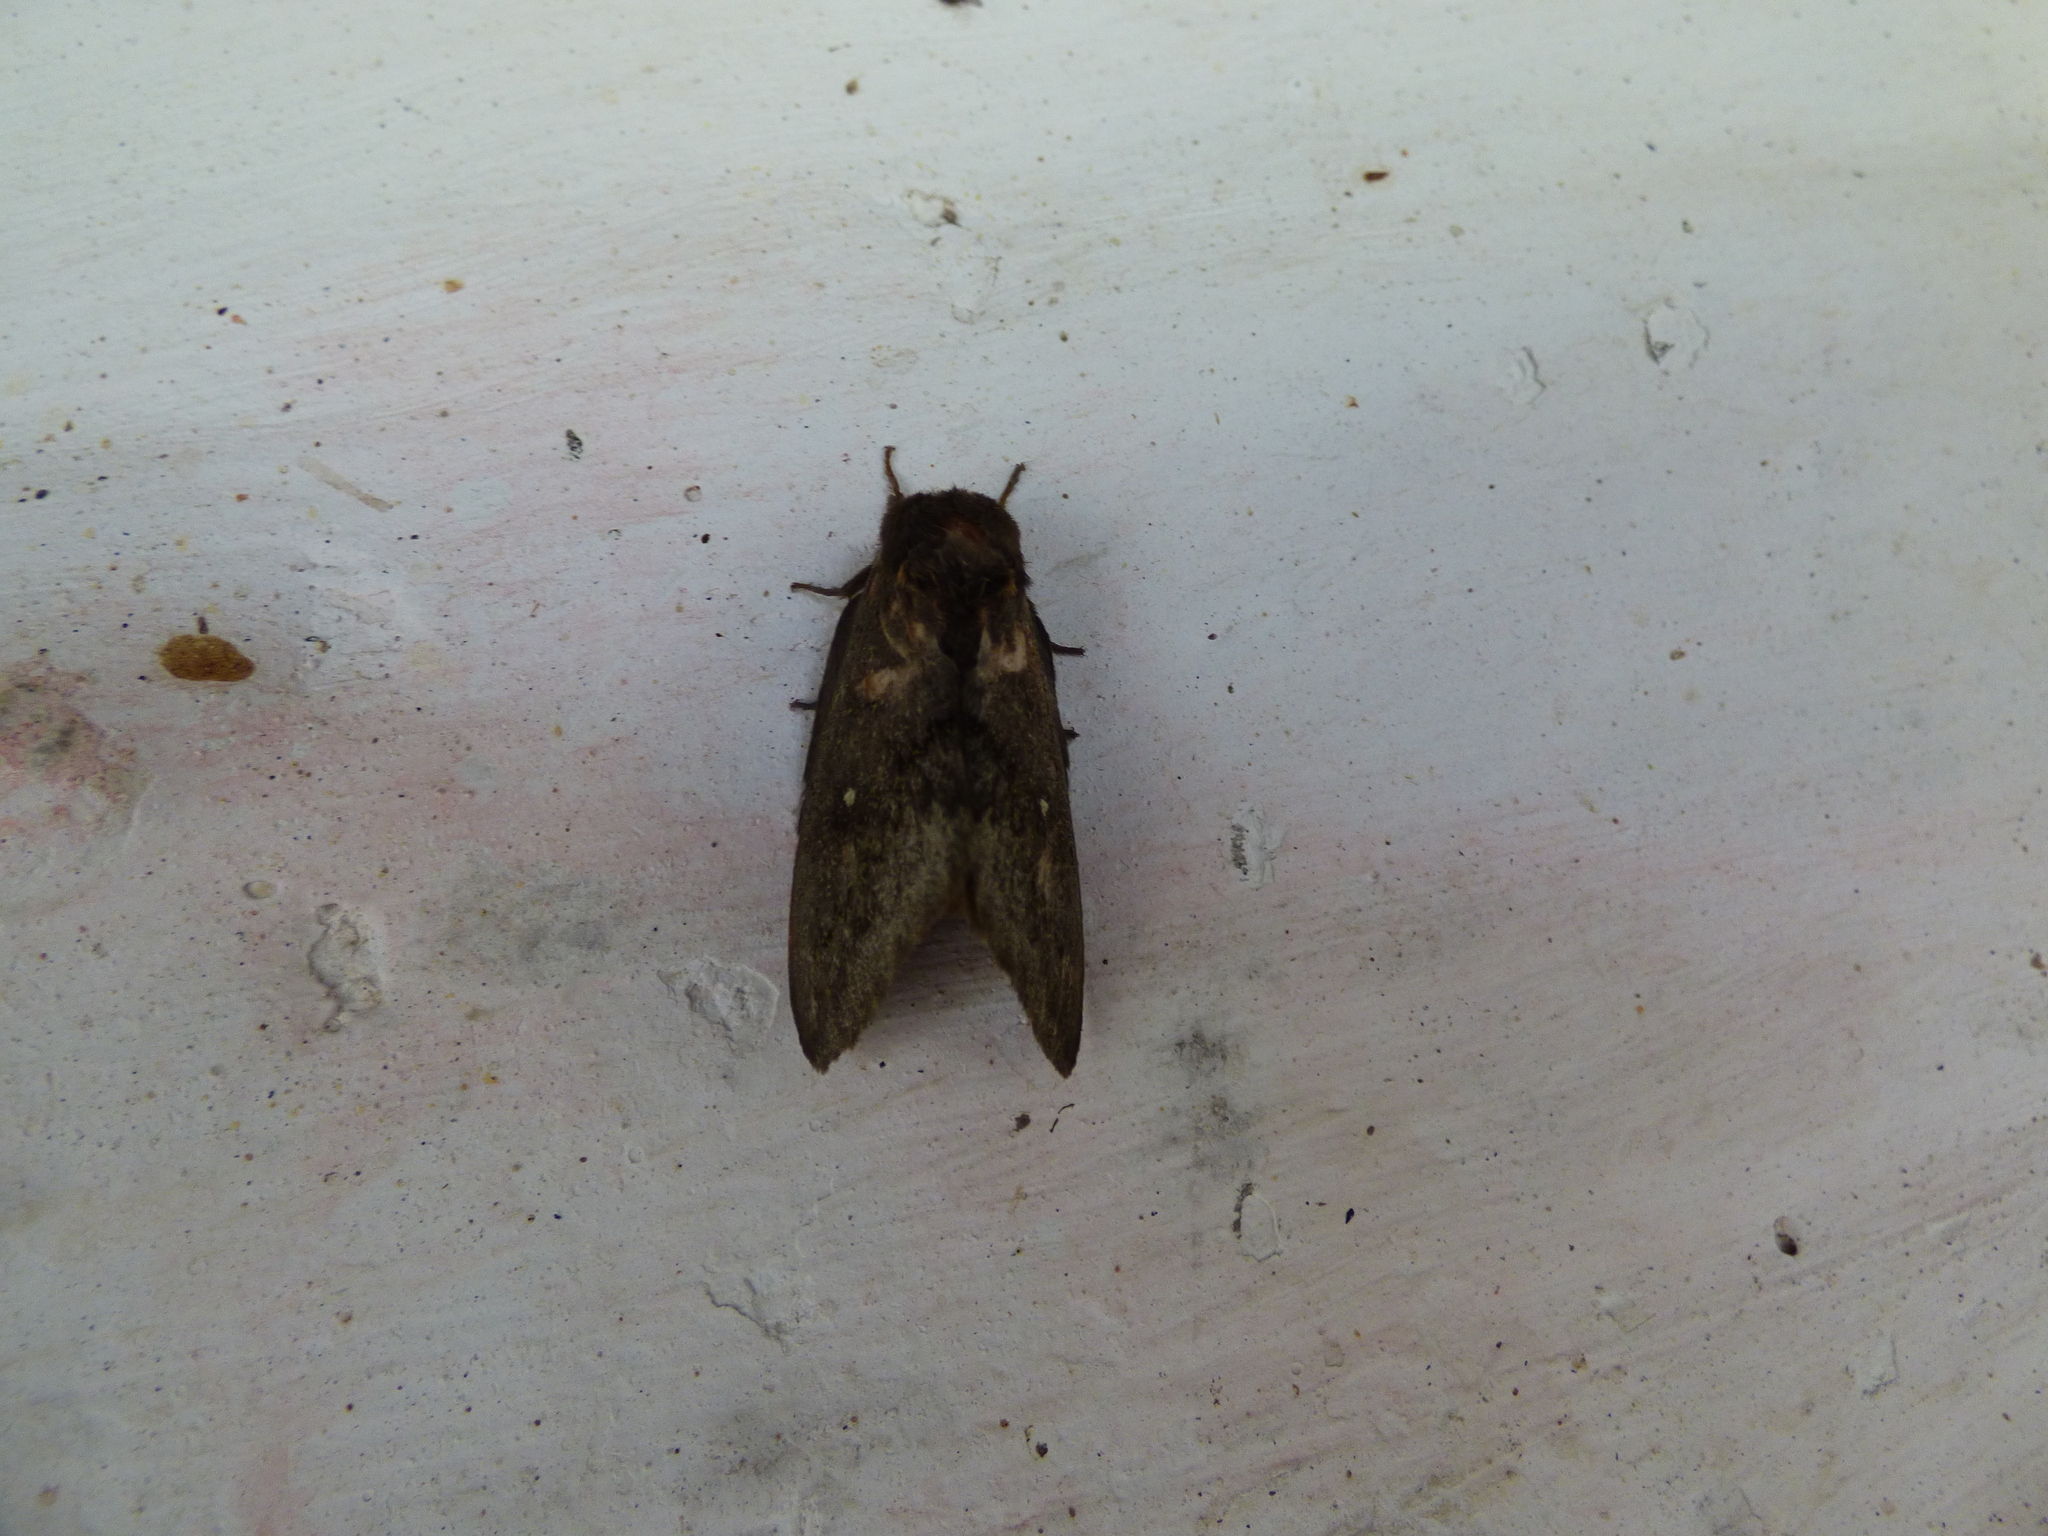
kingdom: Animalia
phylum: Arthropoda
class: Insecta
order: Lepidoptera
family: Saturniidae
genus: Leucanella
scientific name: Leucanella aspera
